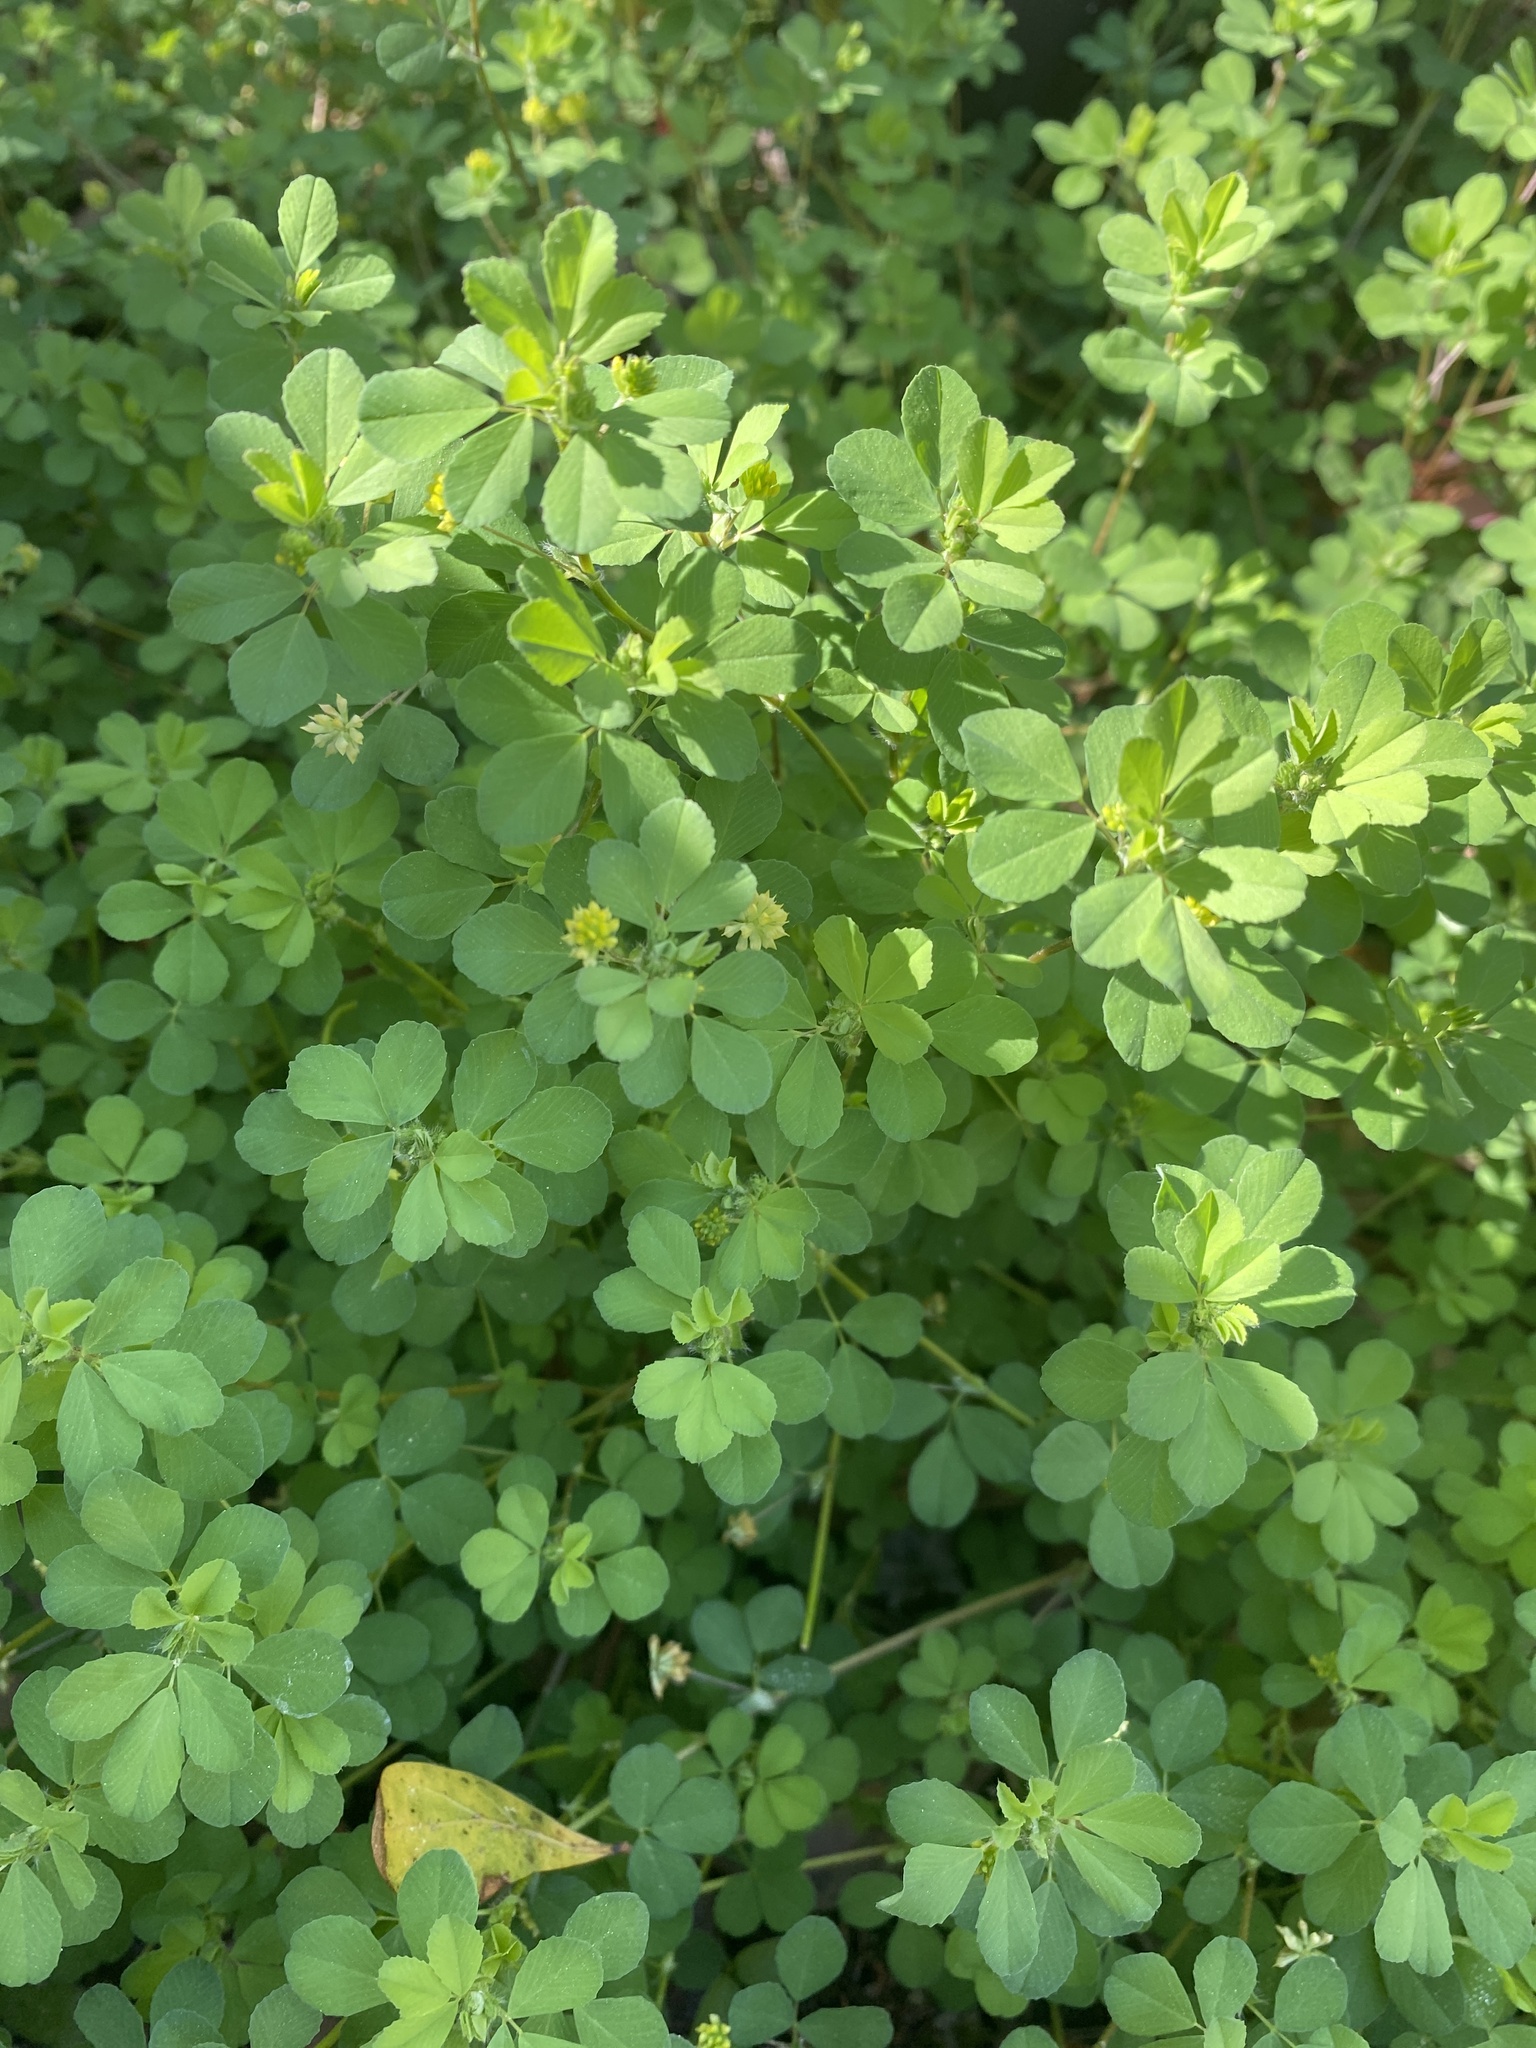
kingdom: Plantae
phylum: Tracheophyta
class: Magnoliopsida
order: Fabales
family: Fabaceae
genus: Trifolium
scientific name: Trifolium dubium
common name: Suckling clover
